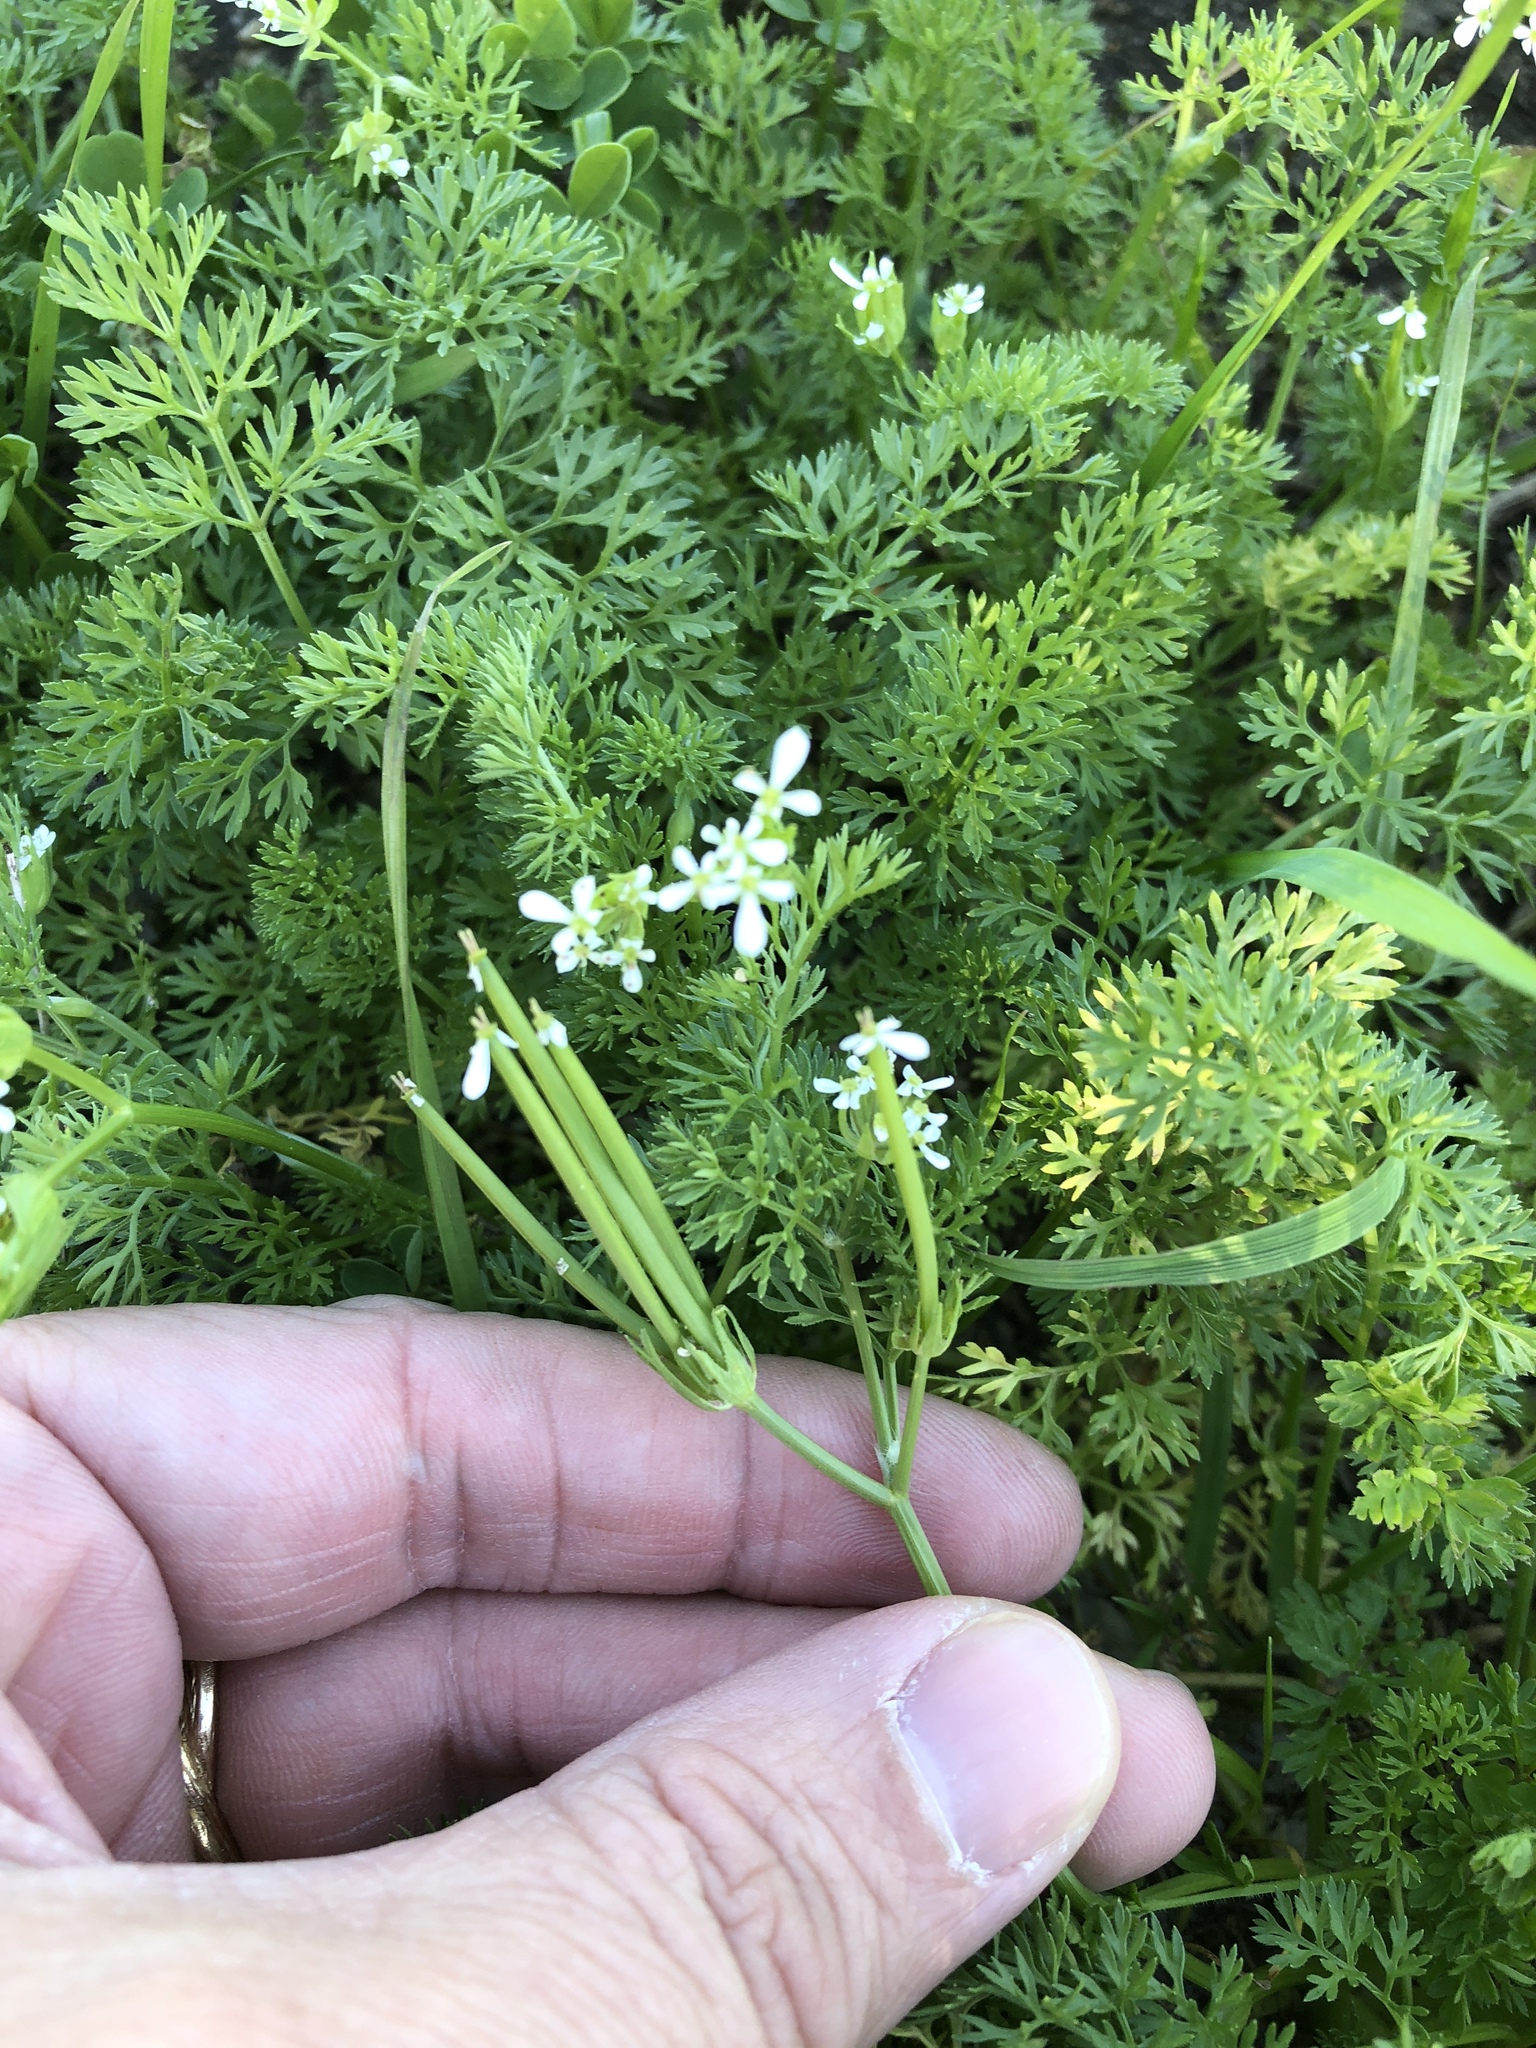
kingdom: Plantae
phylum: Tracheophyta
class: Magnoliopsida
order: Apiales
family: Apiaceae
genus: Scandix
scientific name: Scandix pecten-veneris
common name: Shepherd's-needle
